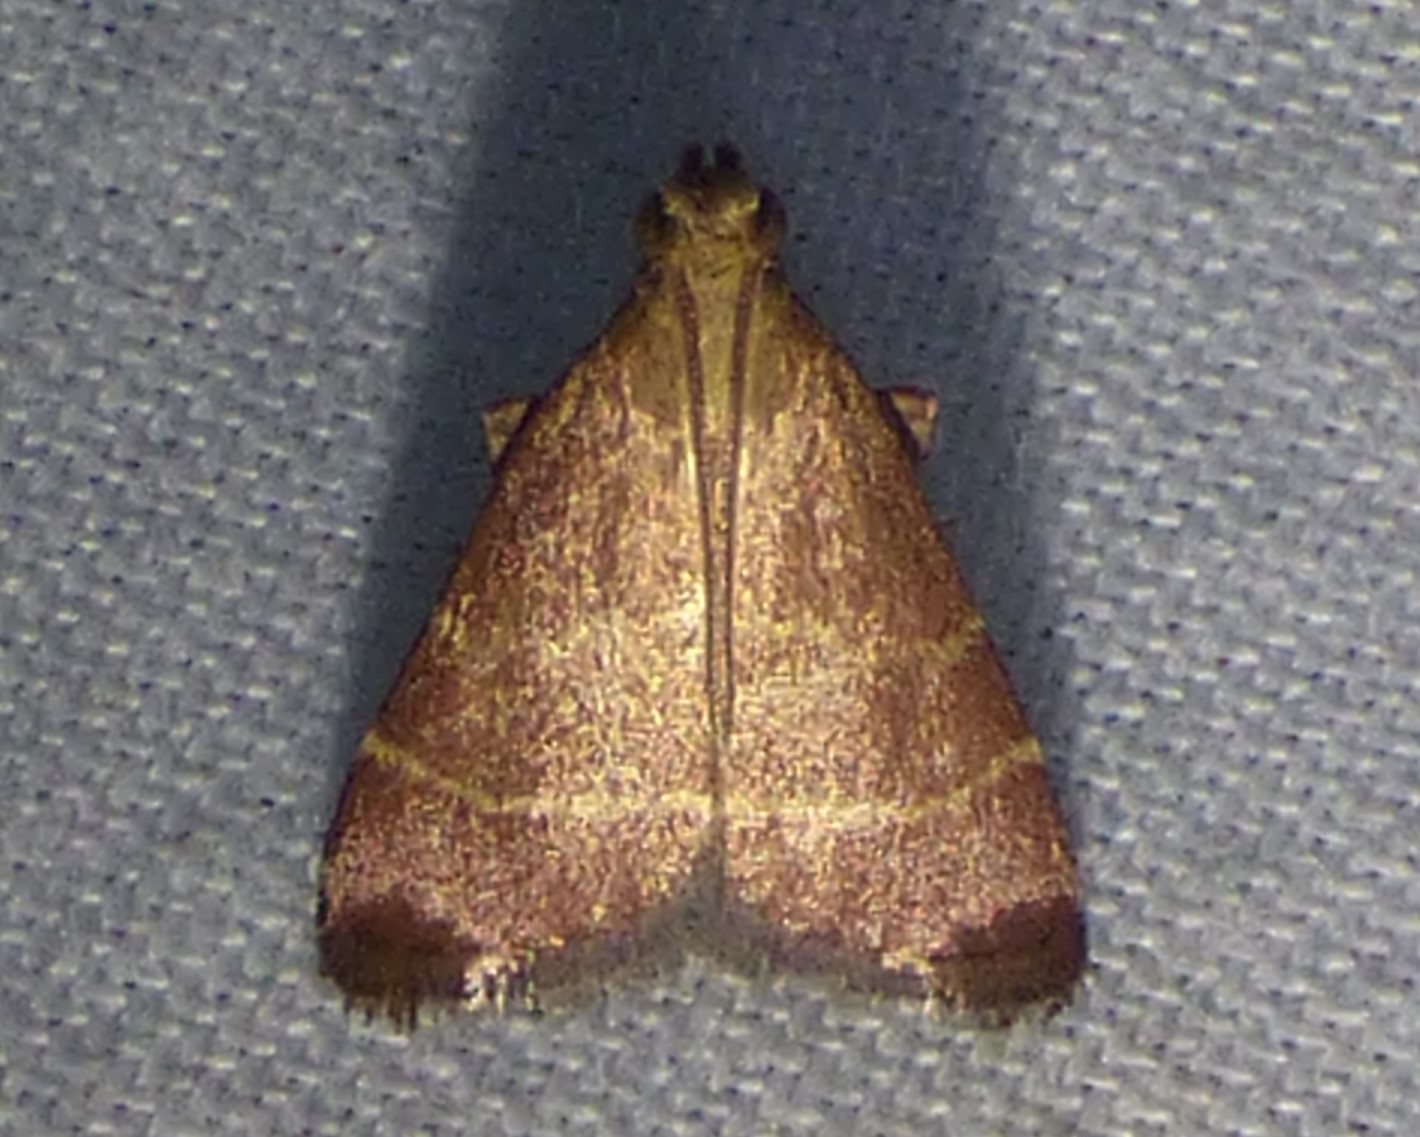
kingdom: Animalia
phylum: Arthropoda
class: Insecta
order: Lepidoptera
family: Pyralidae
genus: Arta
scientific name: Arta statalis
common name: Posturing arta moth
